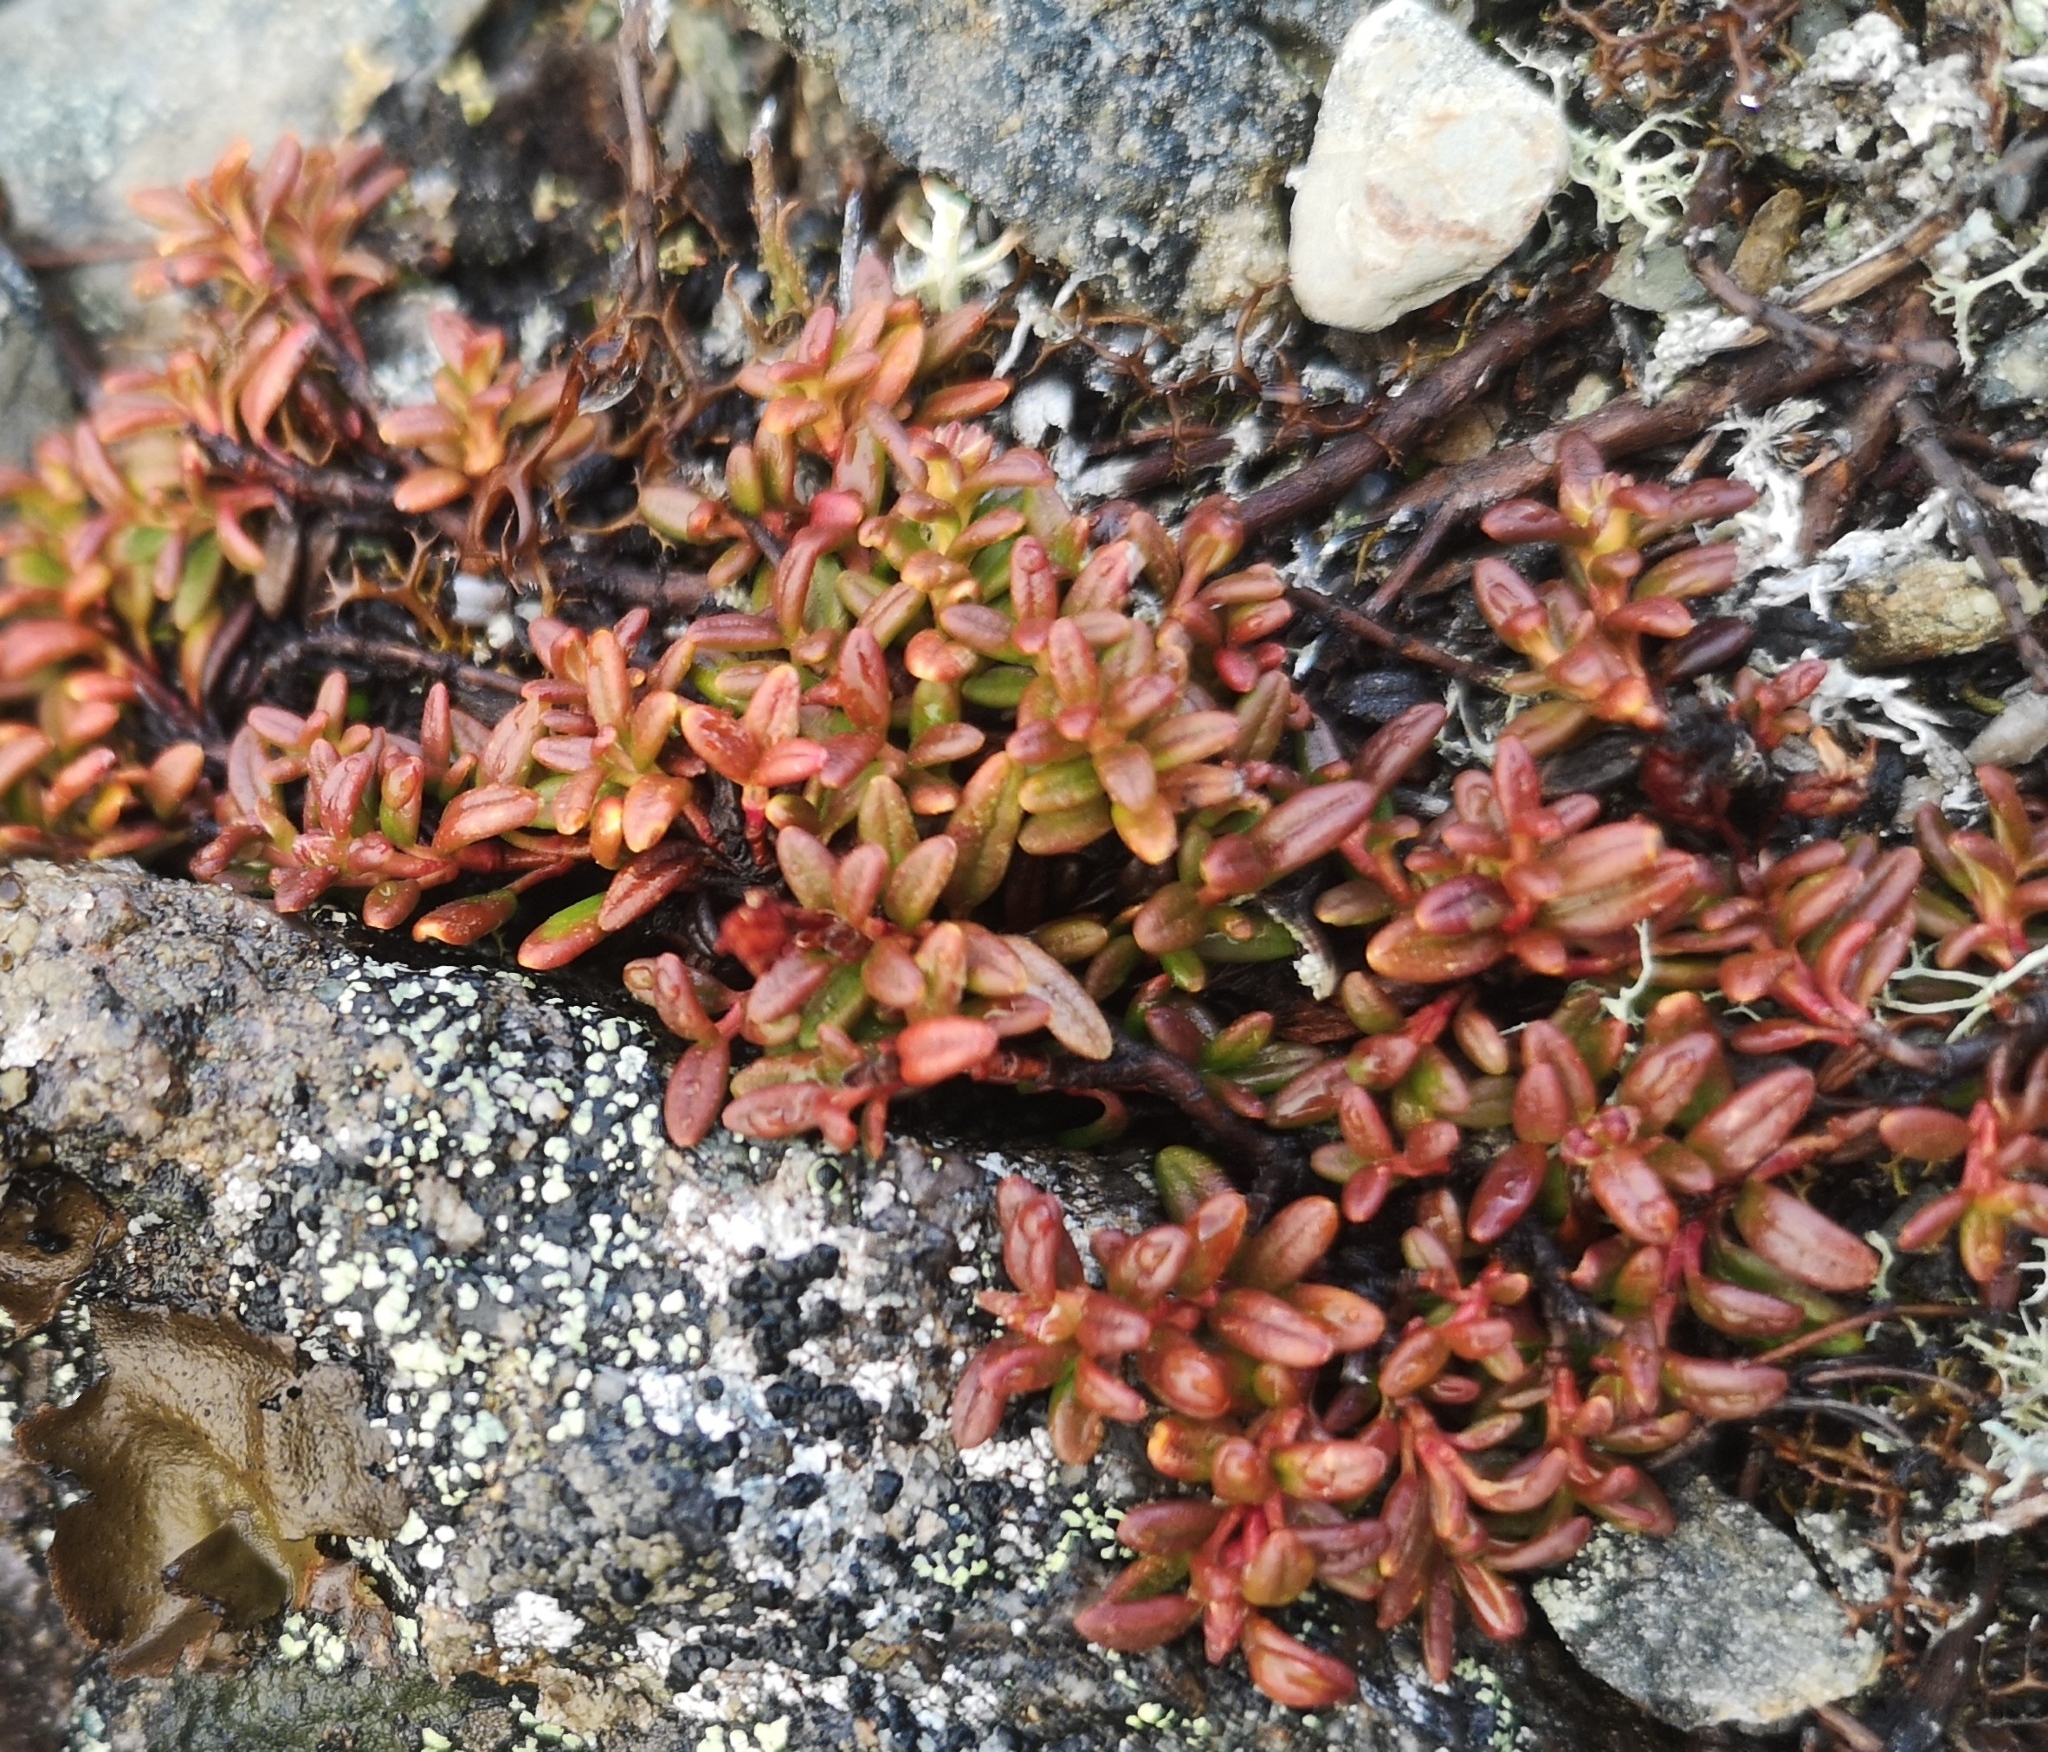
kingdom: Plantae
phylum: Tracheophyta
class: Magnoliopsida
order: Ericales
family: Ericaceae
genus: Kalmia
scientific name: Kalmia procumbens
